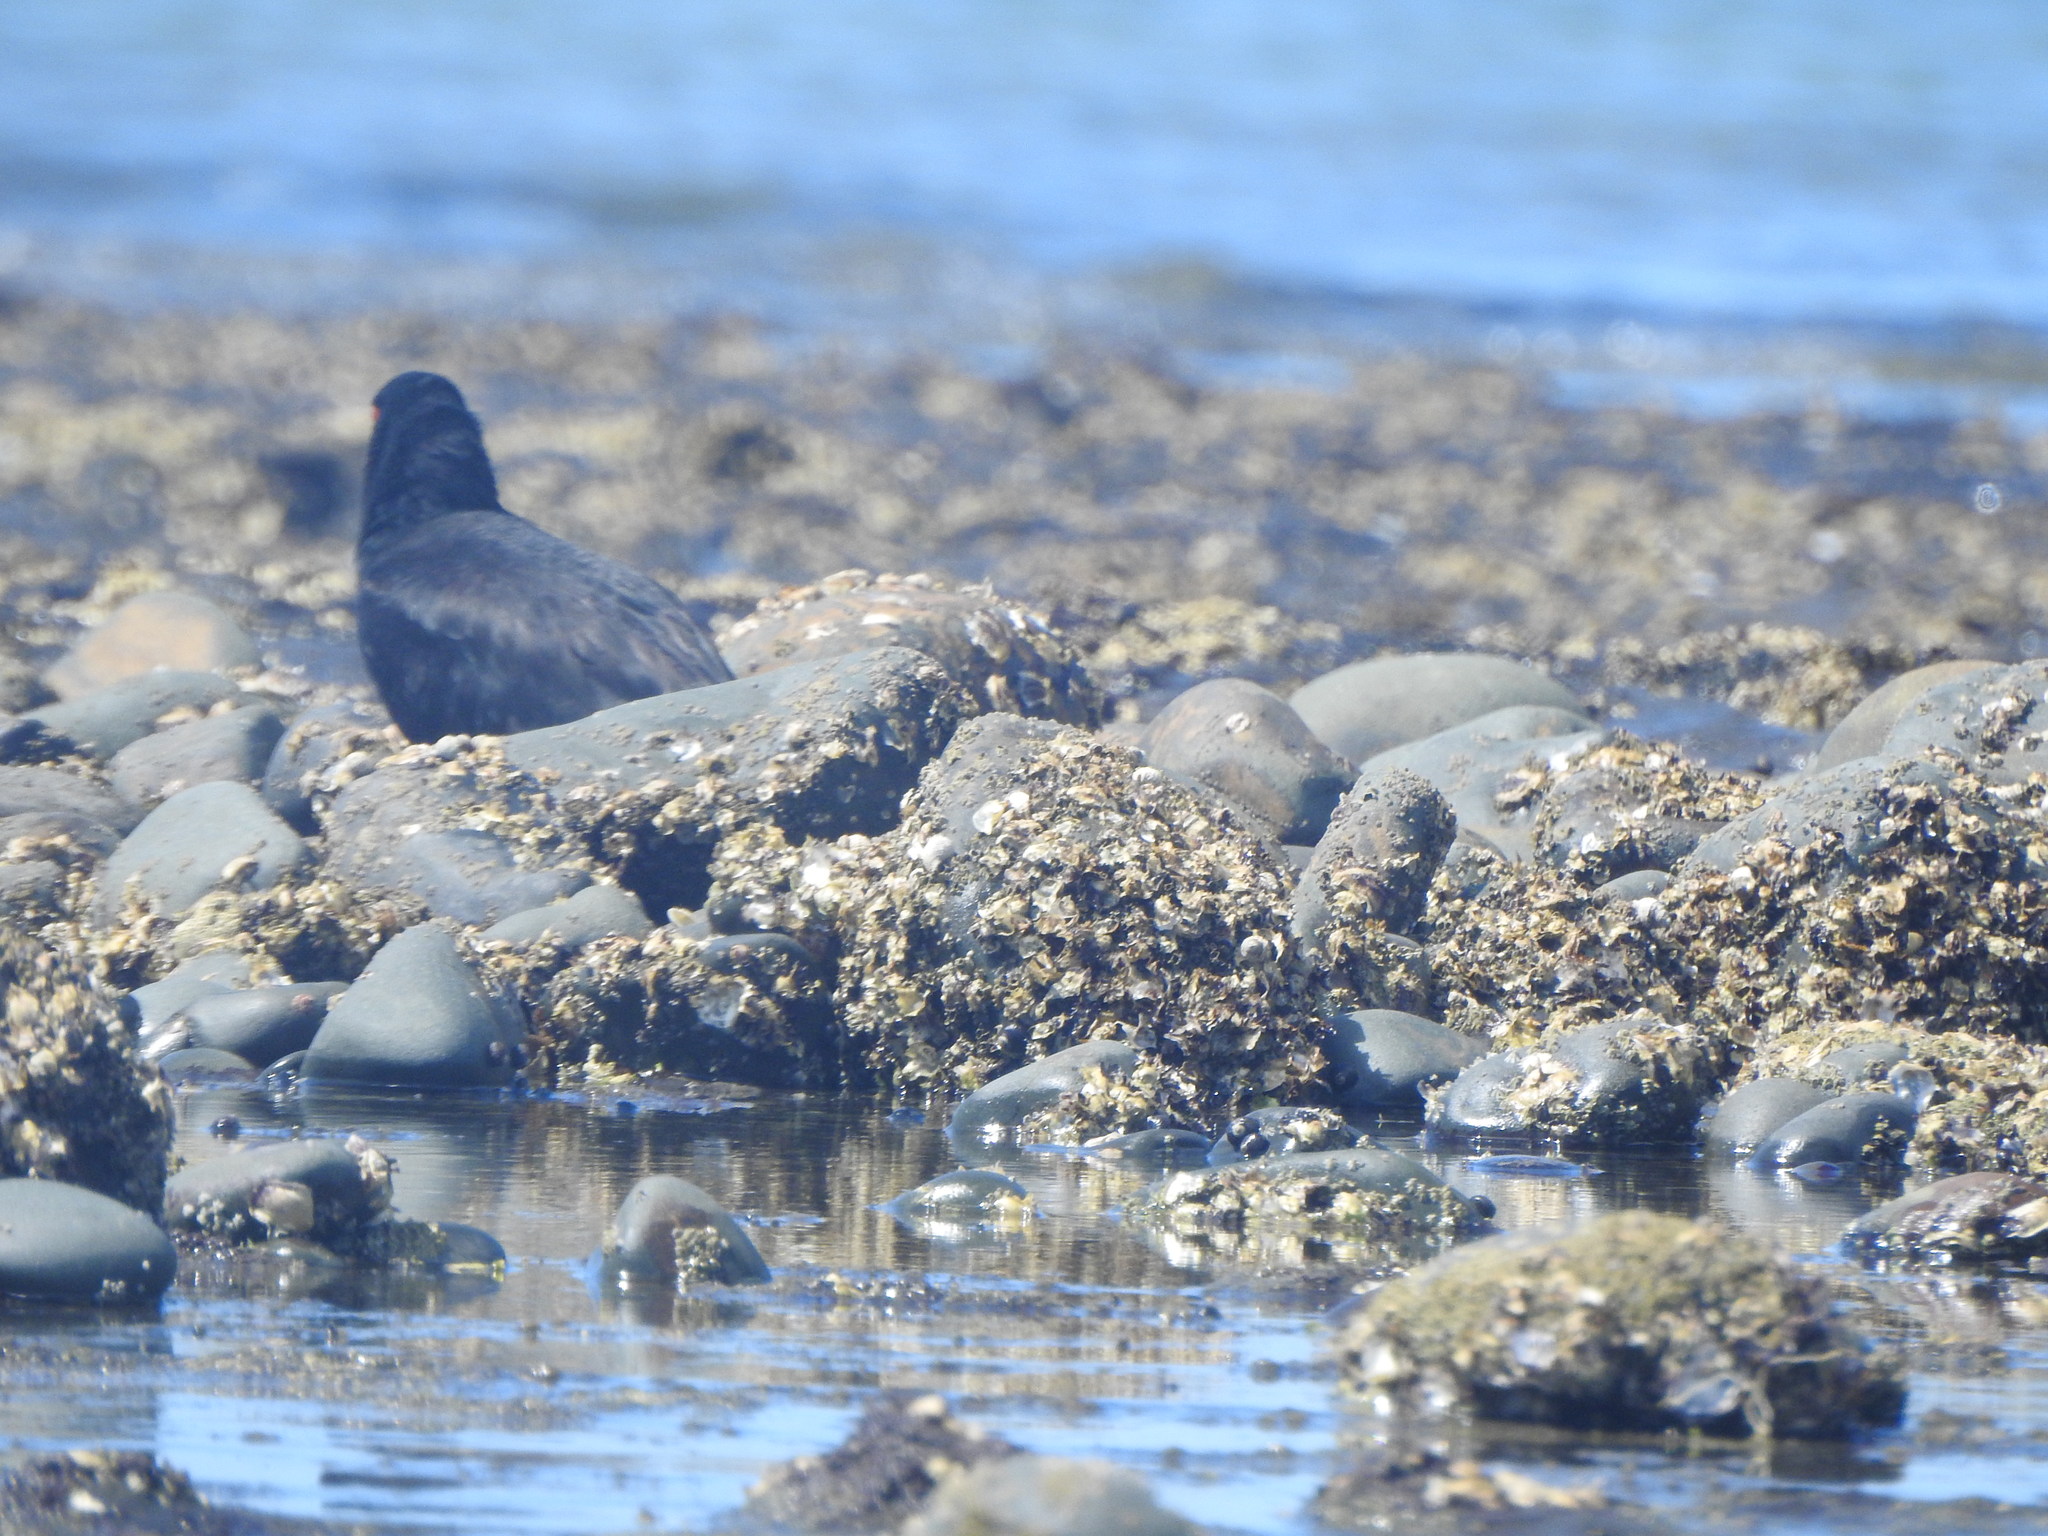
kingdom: Animalia
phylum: Chordata
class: Aves
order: Charadriiformes
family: Haematopodidae
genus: Haematopus
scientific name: Haematopus unicolor
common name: Variable oystercatcher
